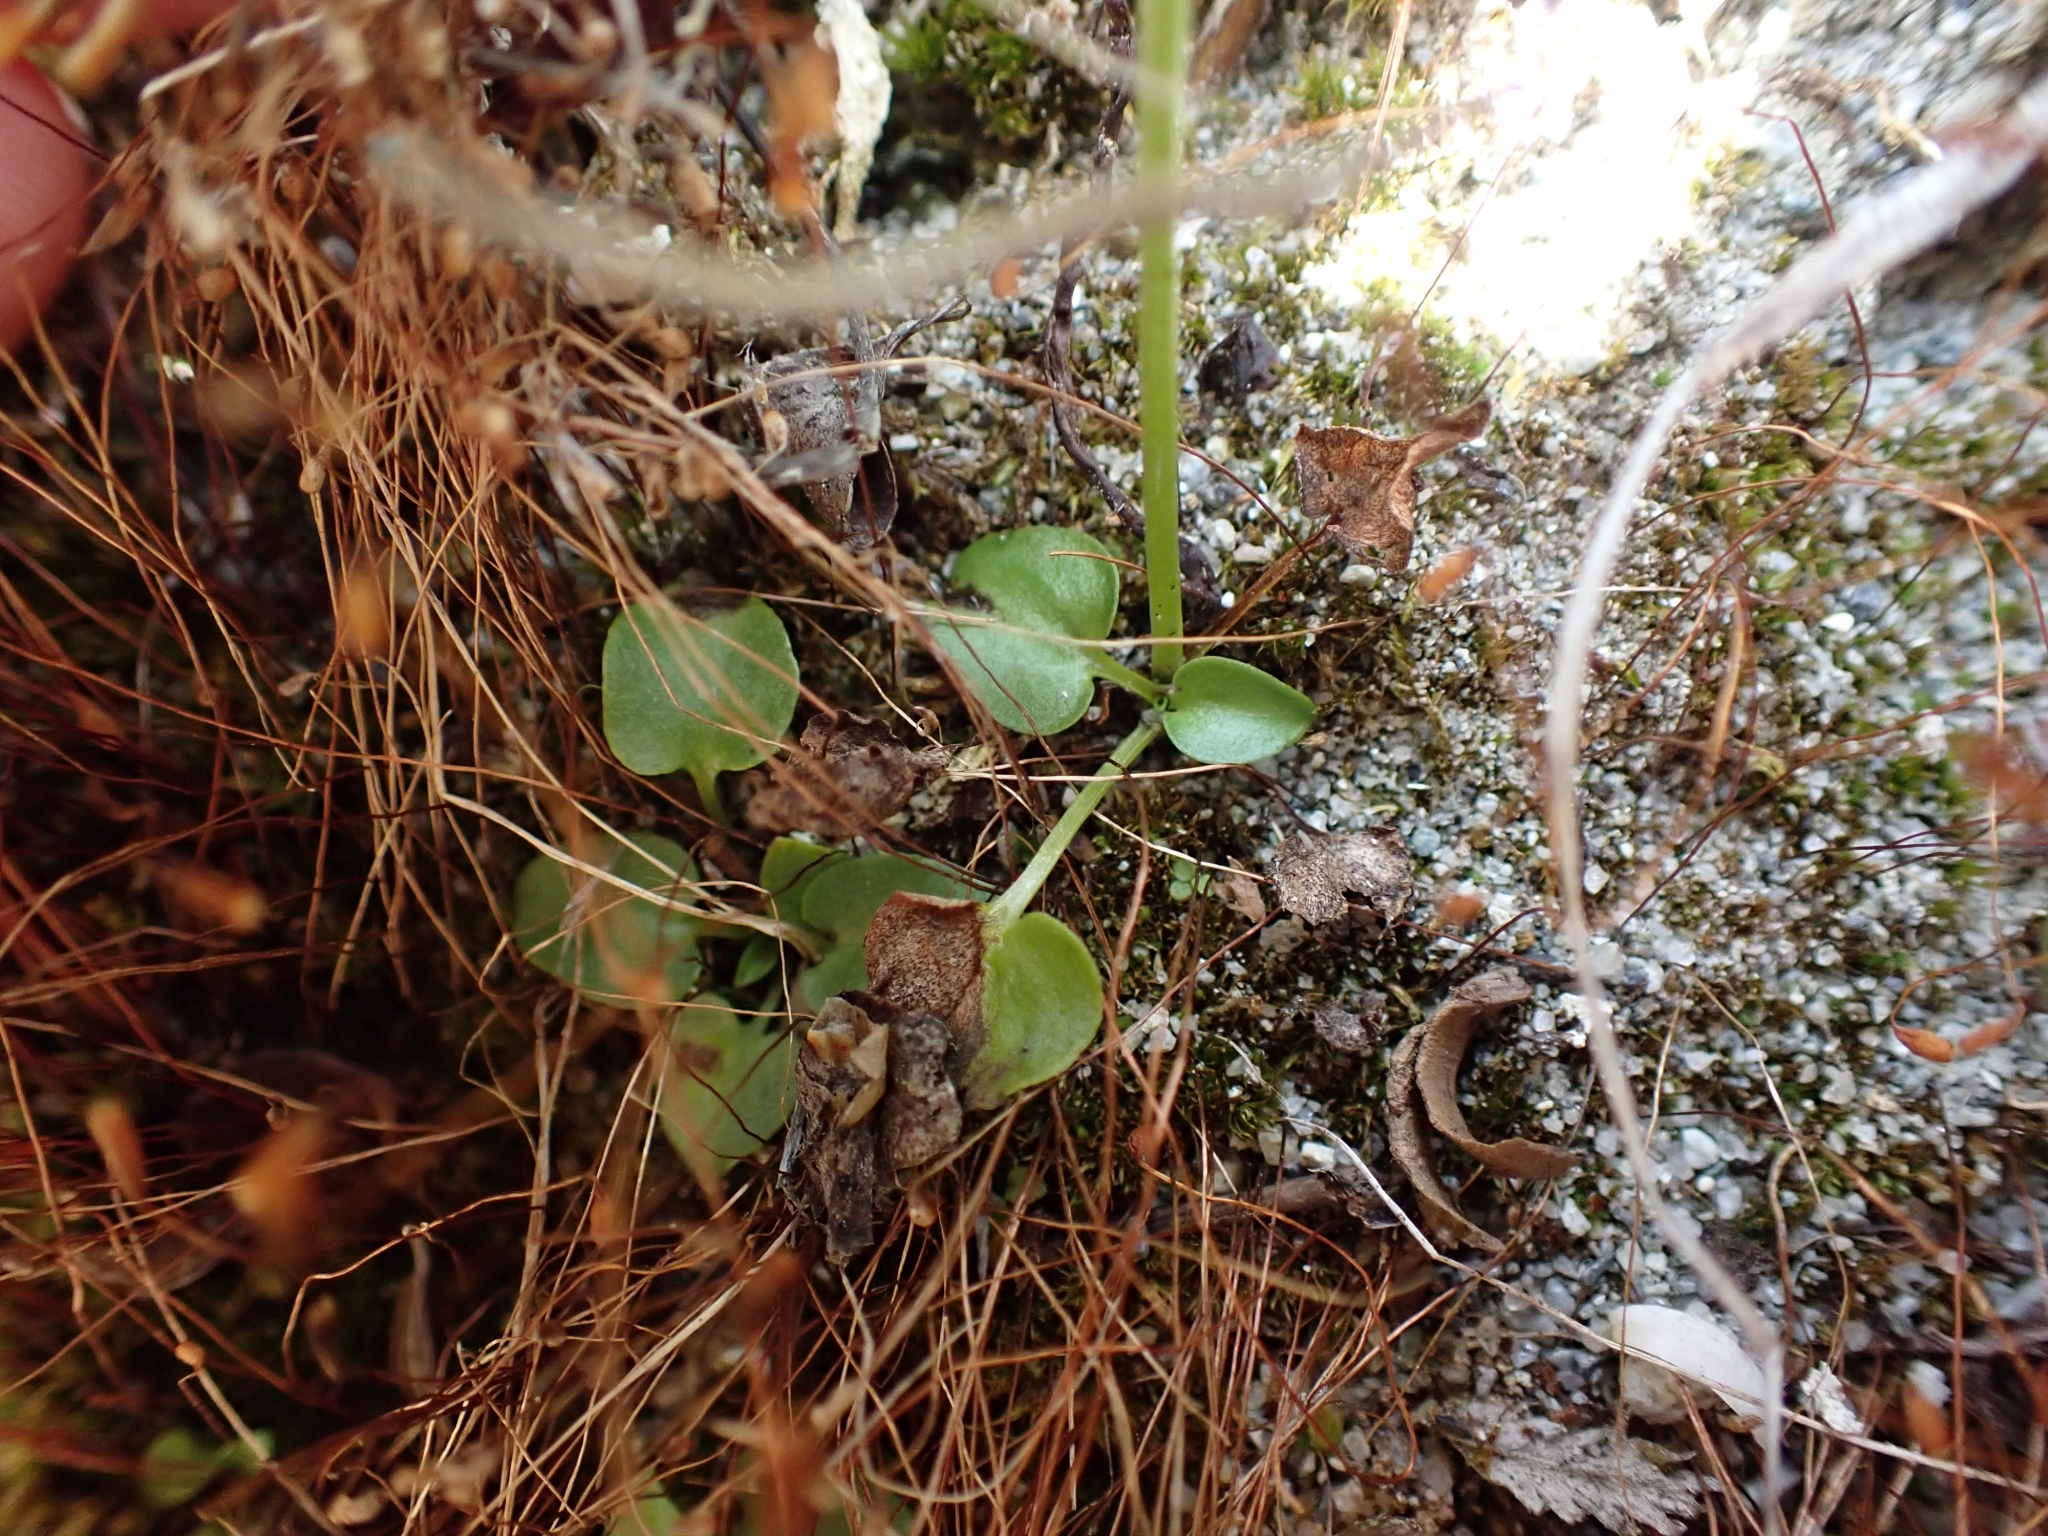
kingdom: Plantae
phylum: Tracheophyta
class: Magnoliopsida
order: Celastrales
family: Parnassiaceae
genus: Parnassia
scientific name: Parnassia palustris
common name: Grass-of-parnassus
